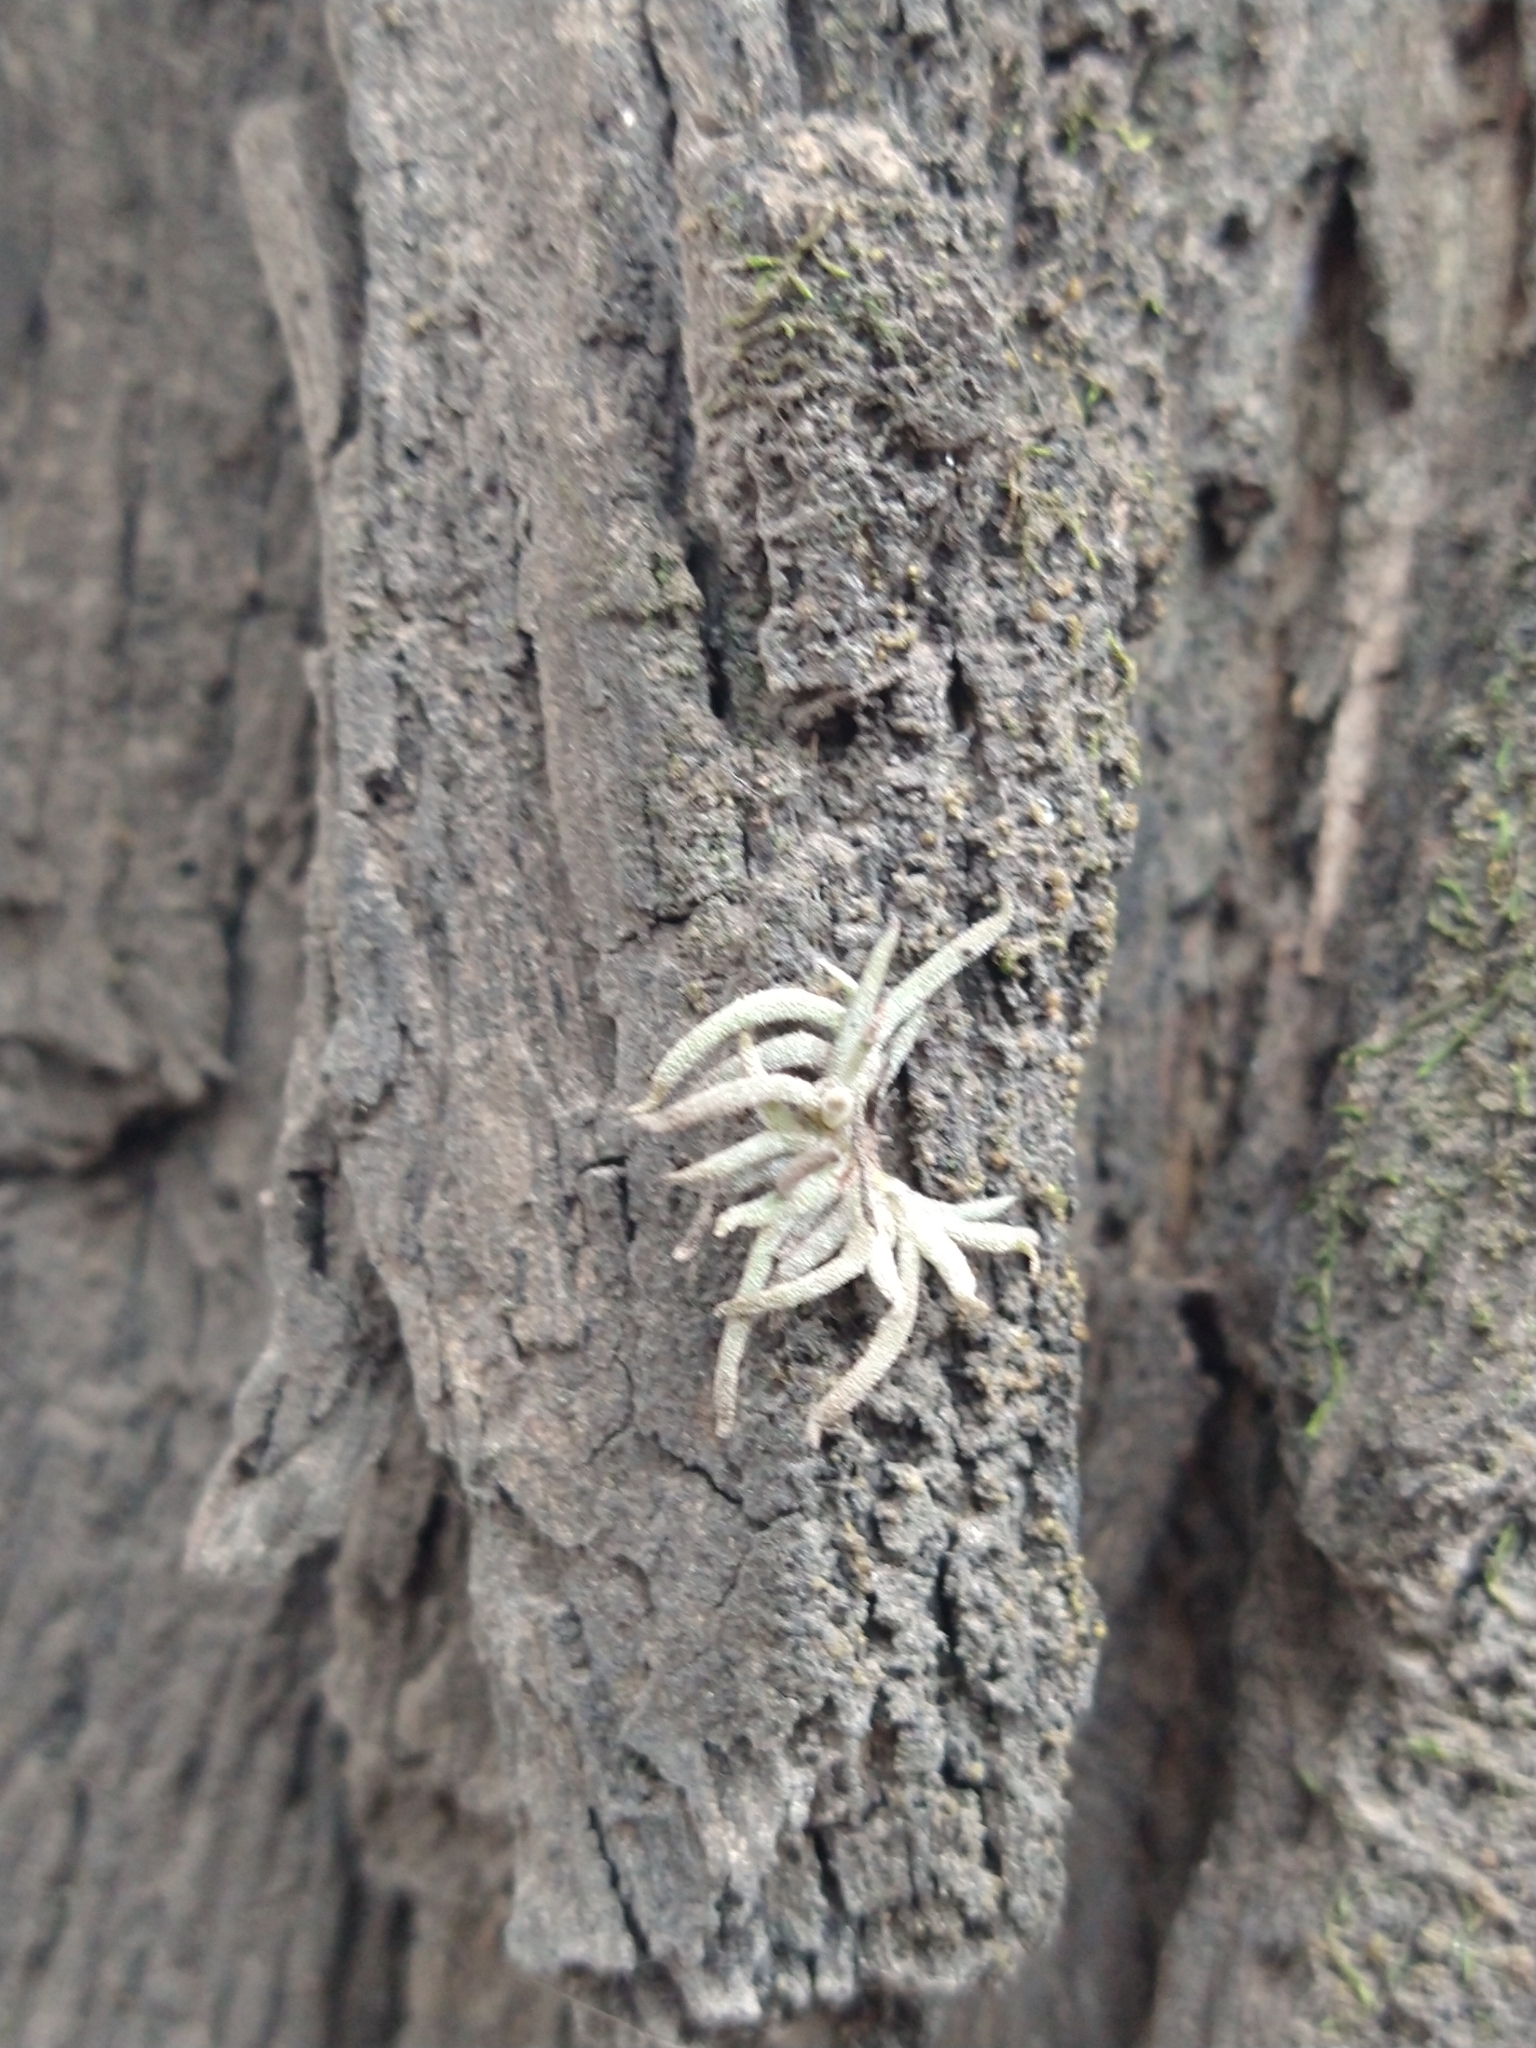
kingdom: Plantae
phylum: Tracheophyta
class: Liliopsida
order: Poales
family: Bromeliaceae
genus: Tillandsia
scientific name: Tillandsia recurvata
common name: Small ballmoss
